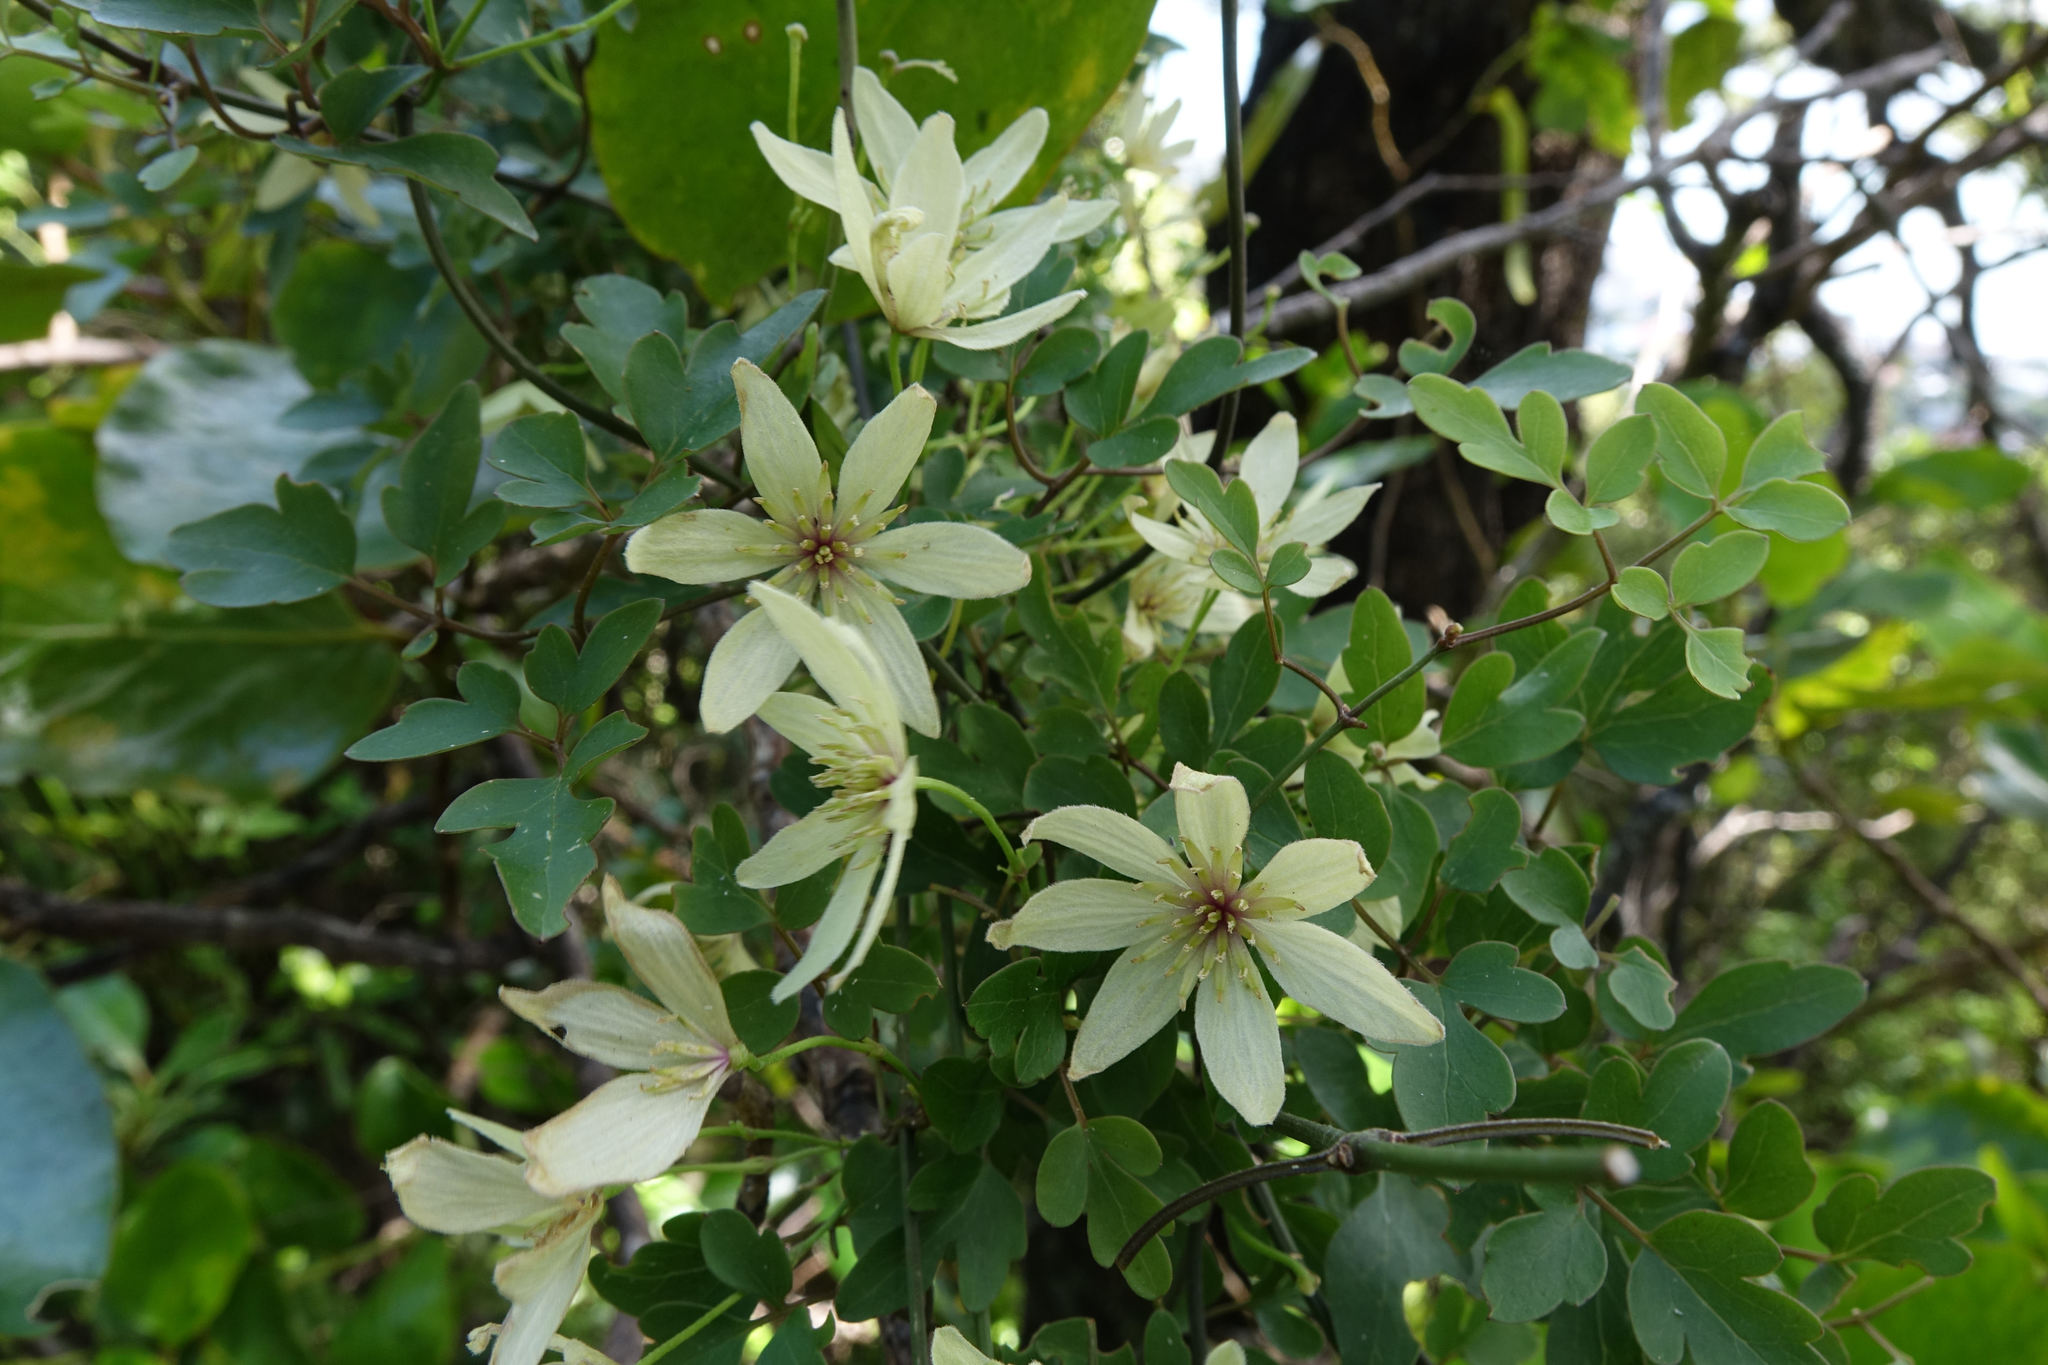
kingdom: Plantae
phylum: Tracheophyta
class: Magnoliopsida
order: Ranunculales
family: Ranunculaceae
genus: Clematis
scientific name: Clematis forsteri
